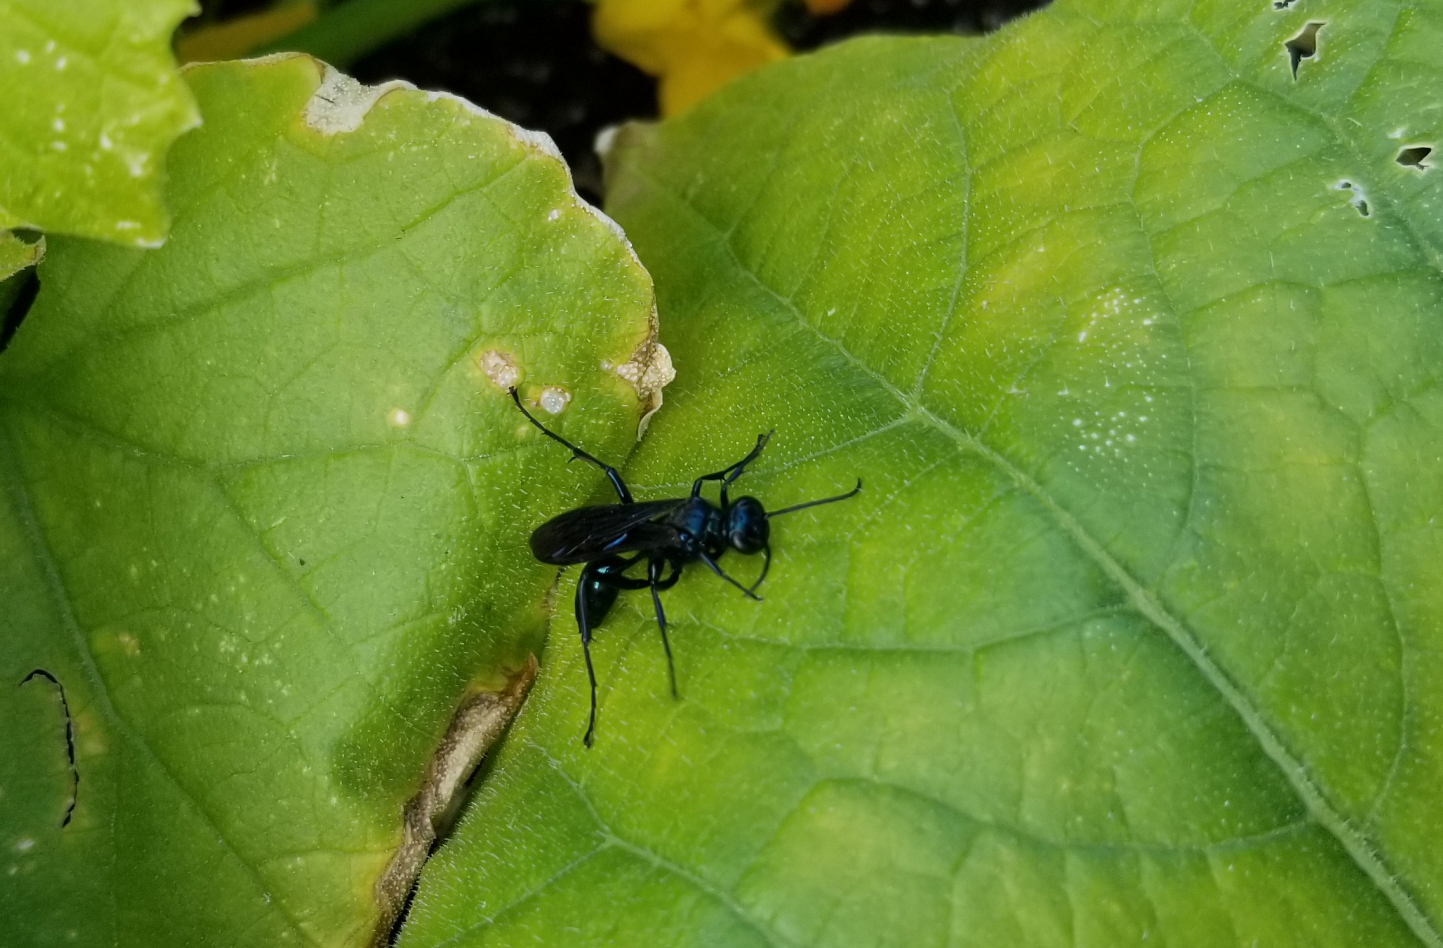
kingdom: Animalia
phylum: Arthropoda
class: Insecta
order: Hymenoptera
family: Sphecidae
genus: Chalybion
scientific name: Chalybion californicum
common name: Mud dauber
